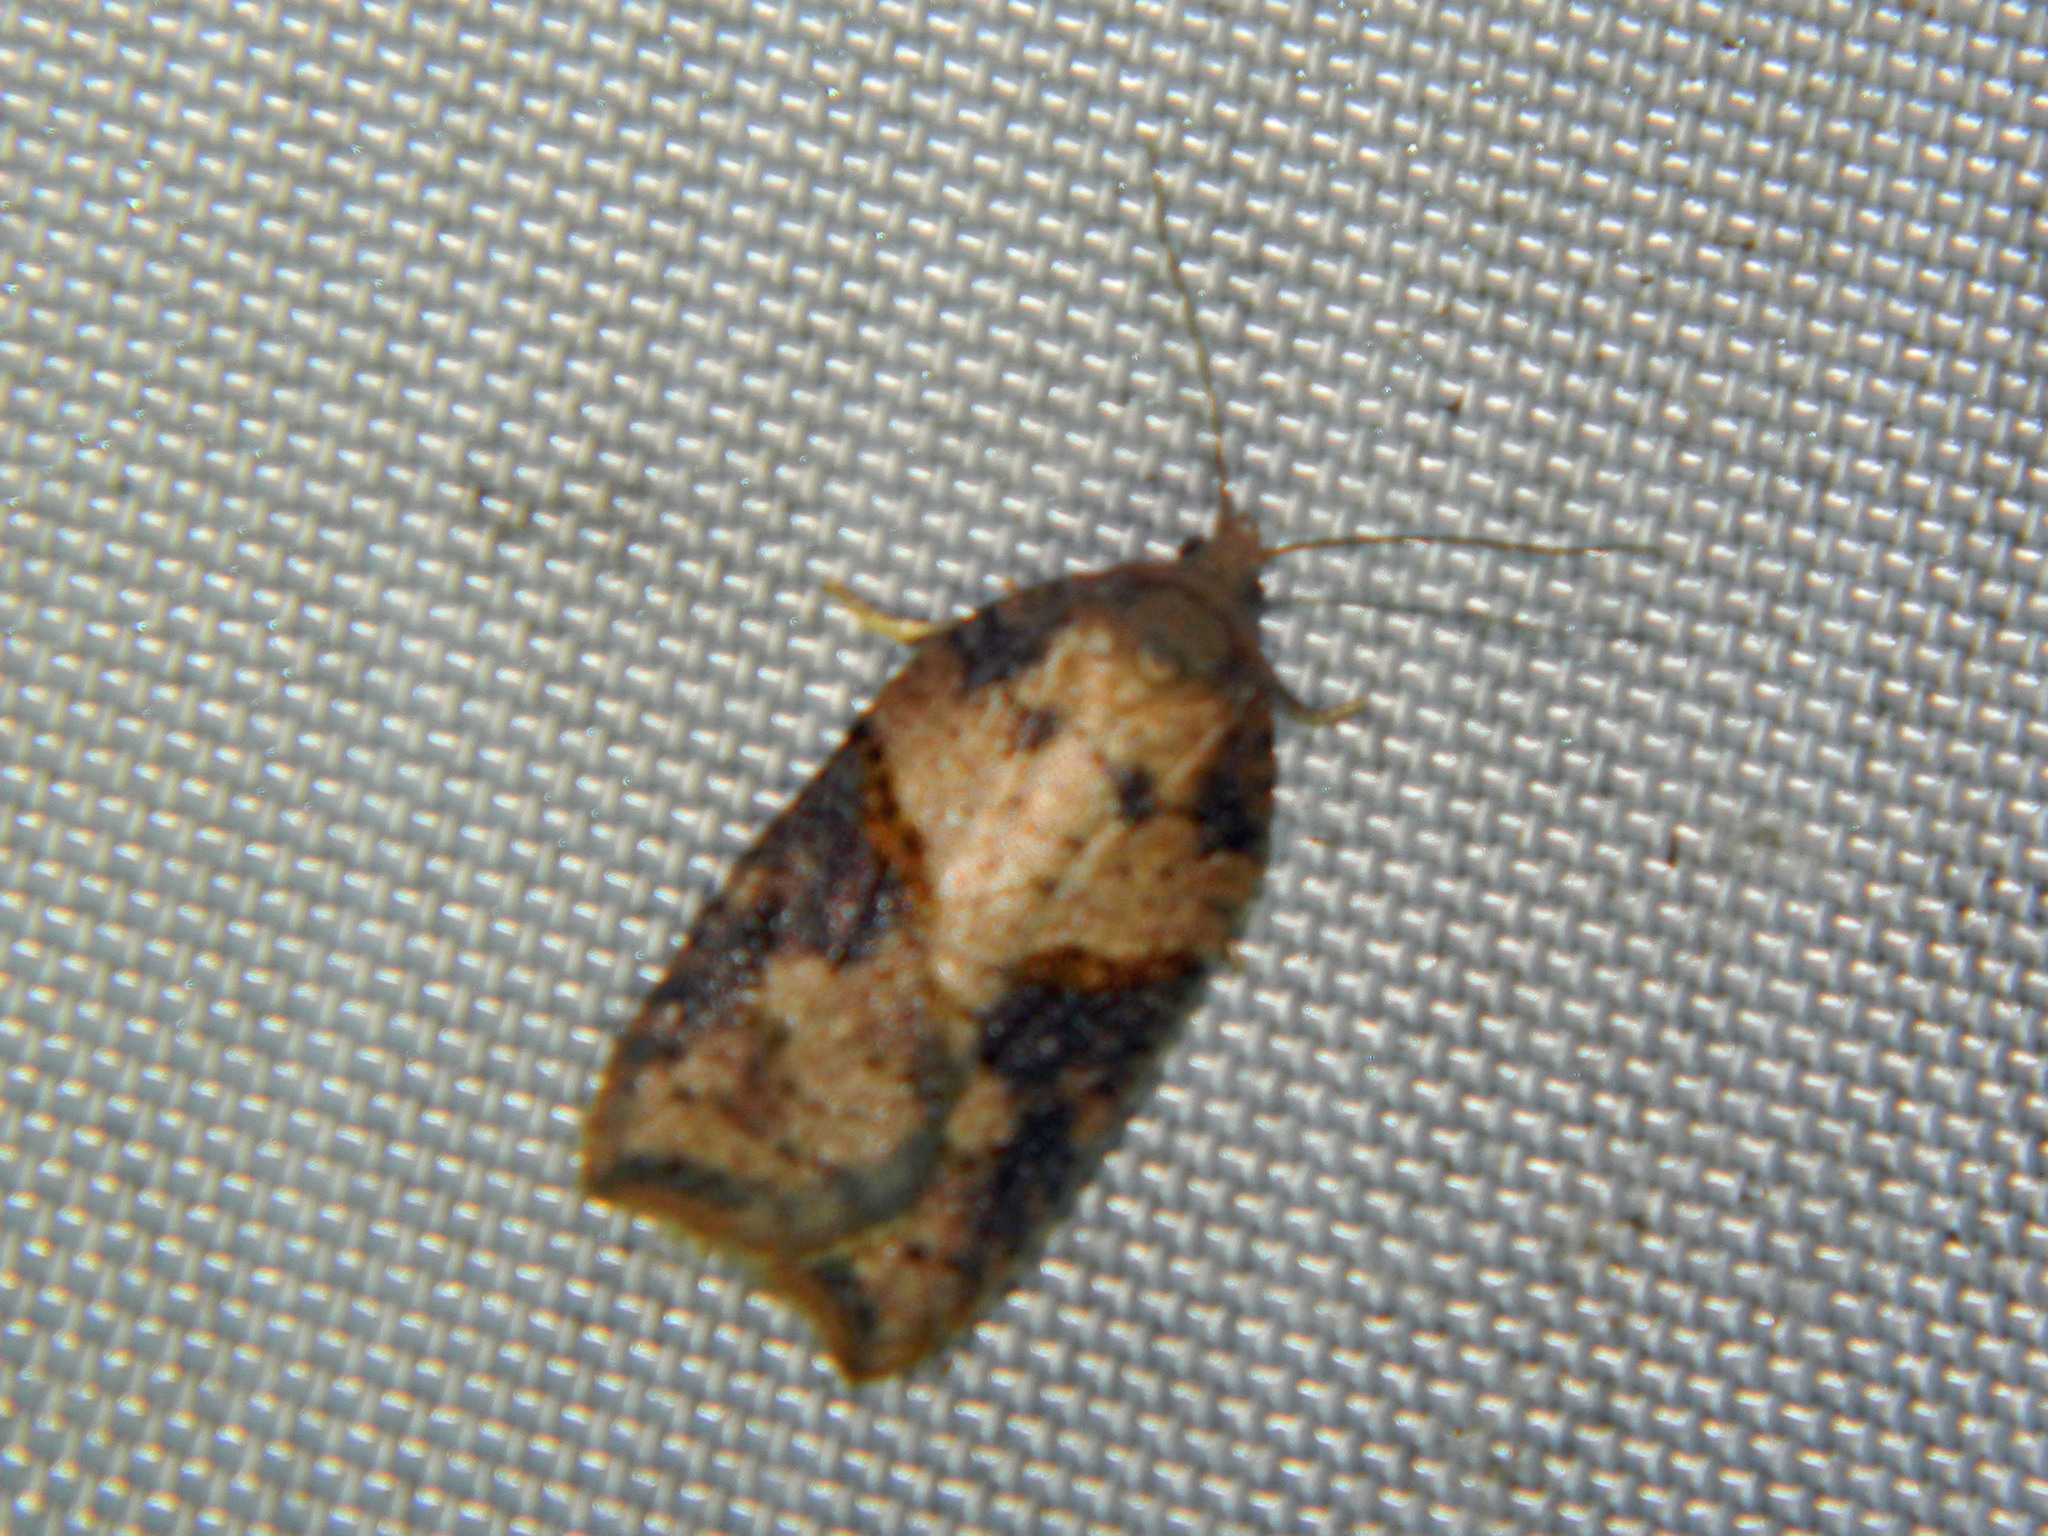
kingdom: Animalia
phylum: Arthropoda
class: Insecta
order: Lepidoptera
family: Tortricidae
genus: Acleris
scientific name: Acleris maccana
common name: Marbled button
